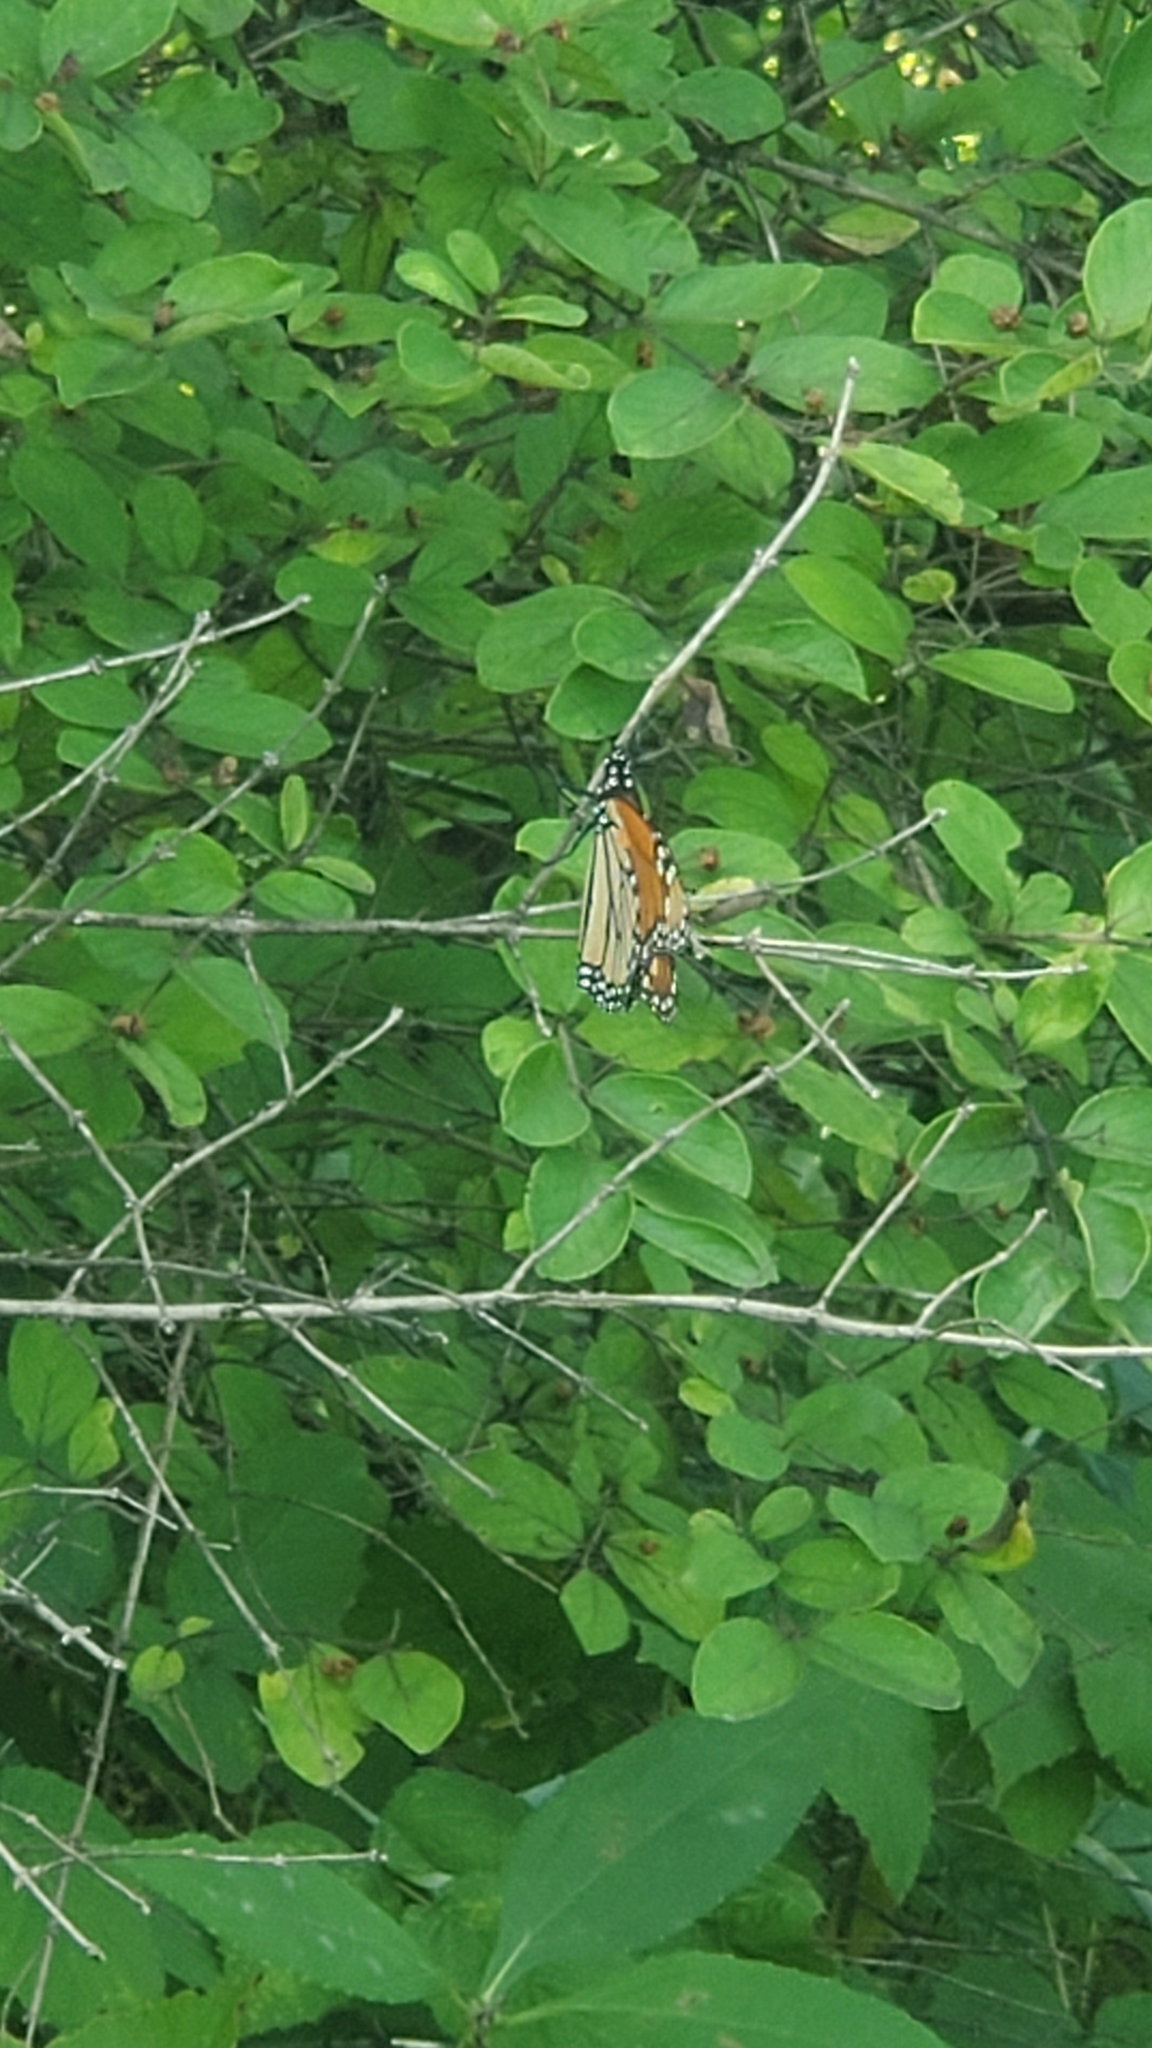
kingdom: Animalia
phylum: Arthropoda
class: Insecta
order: Lepidoptera
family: Nymphalidae
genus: Danaus
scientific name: Danaus plexippus
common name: Monarch
